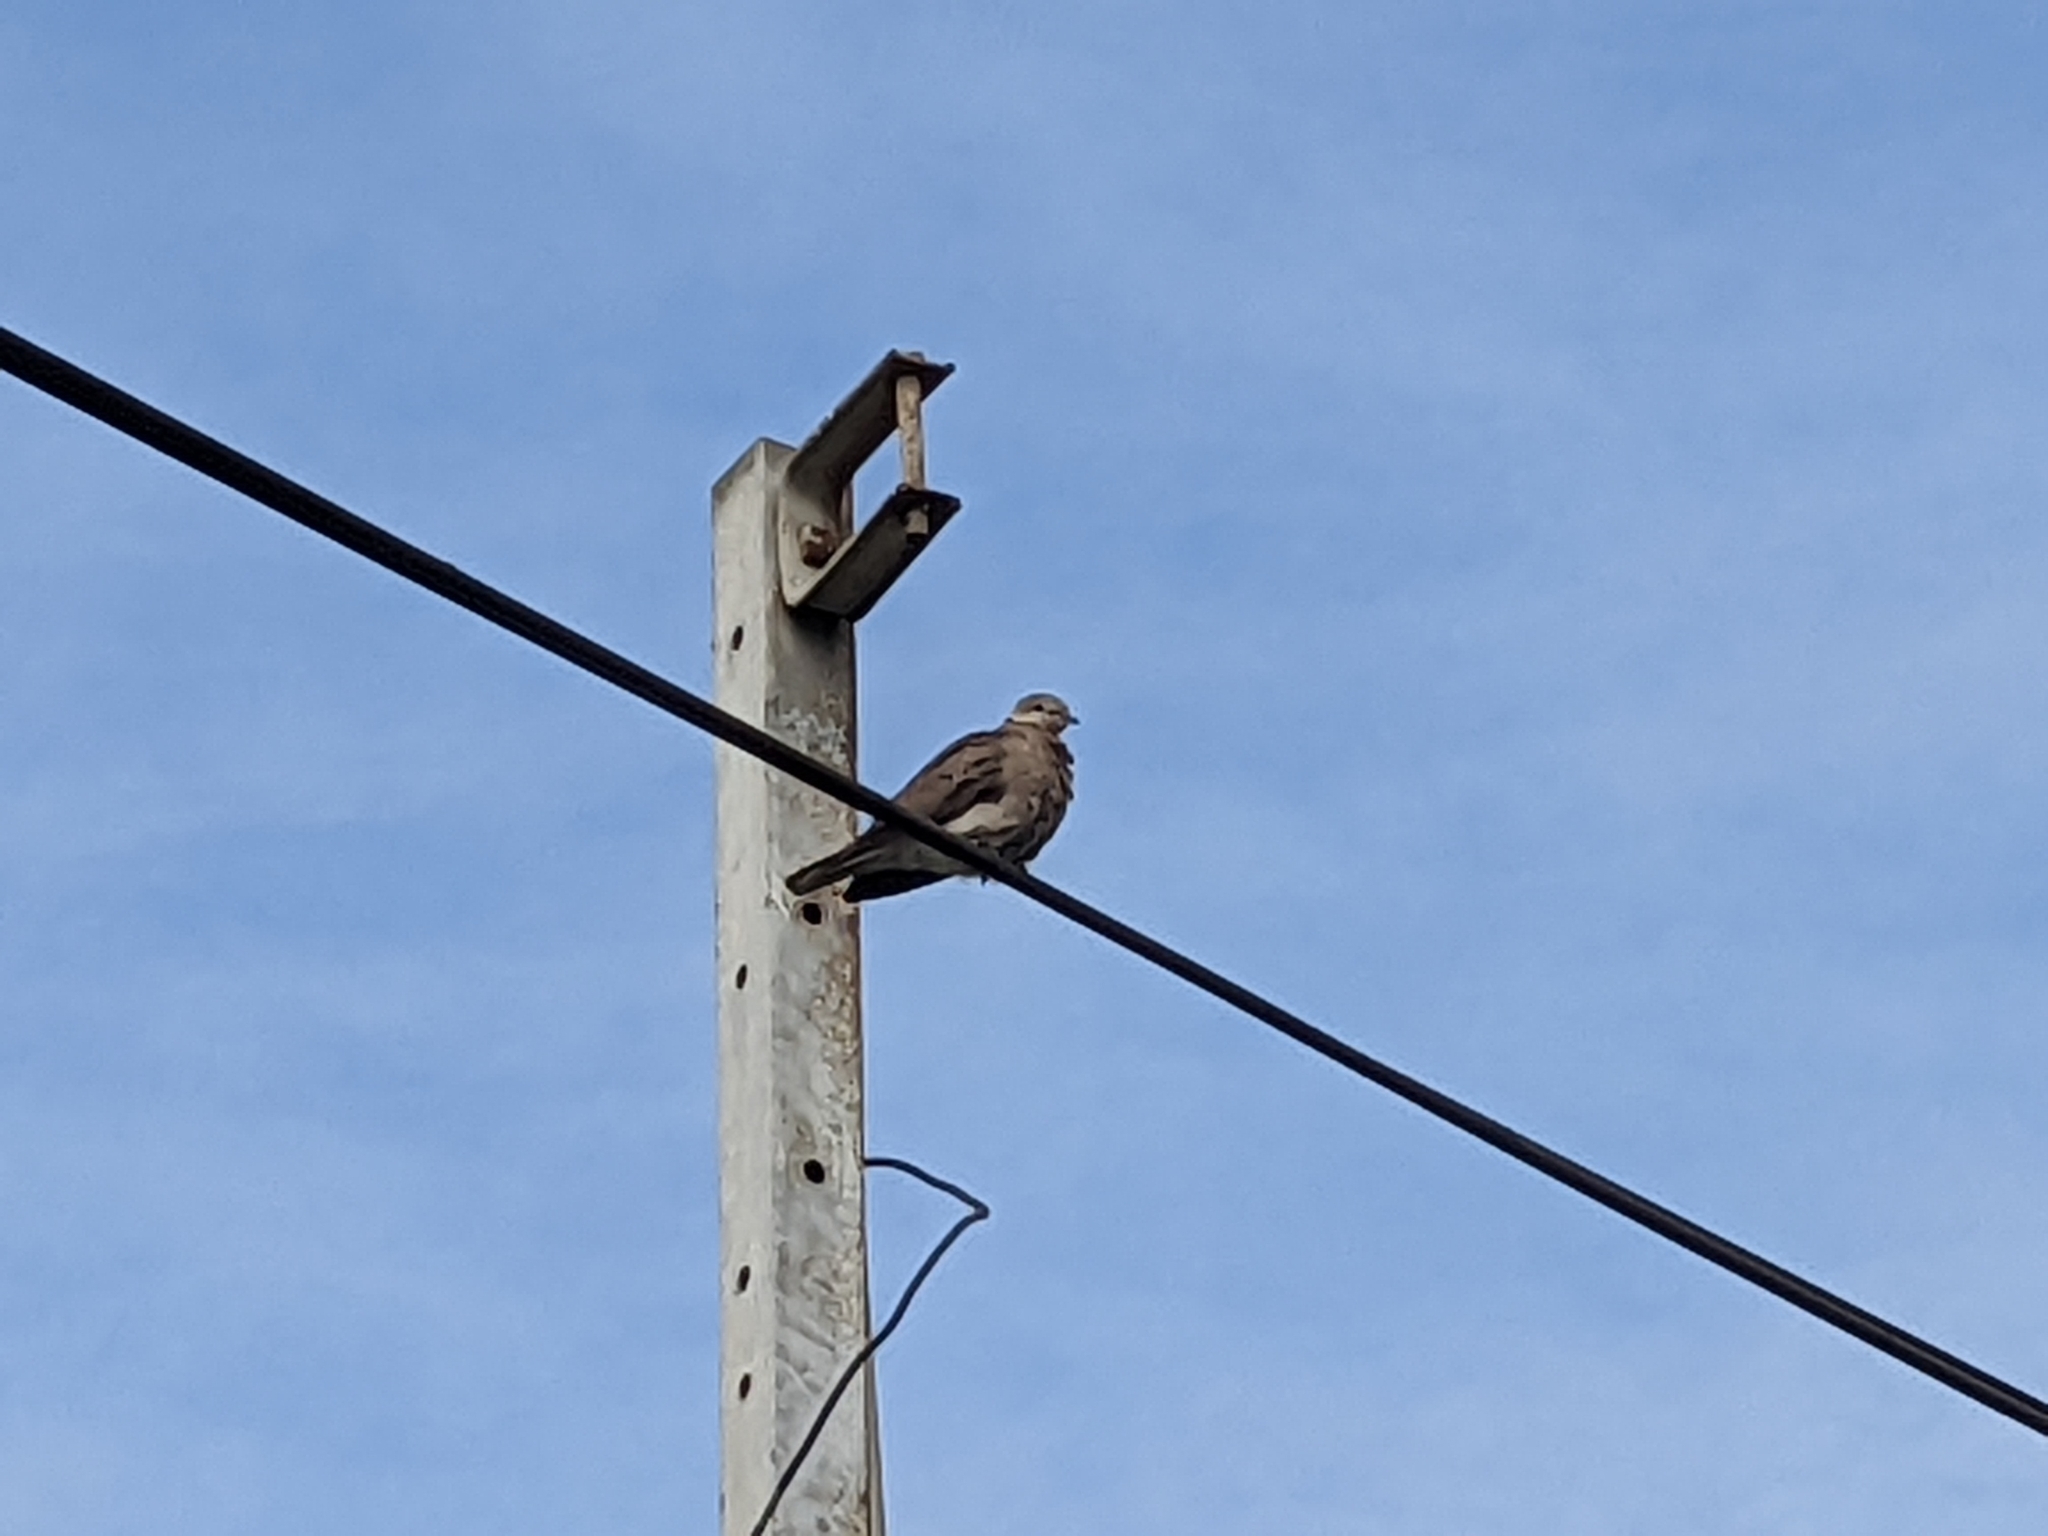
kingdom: Animalia
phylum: Chordata
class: Aves
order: Columbiformes
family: Columbidae
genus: Streptopelia
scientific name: Streptopelia tranquebarica
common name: Red turtle dove
